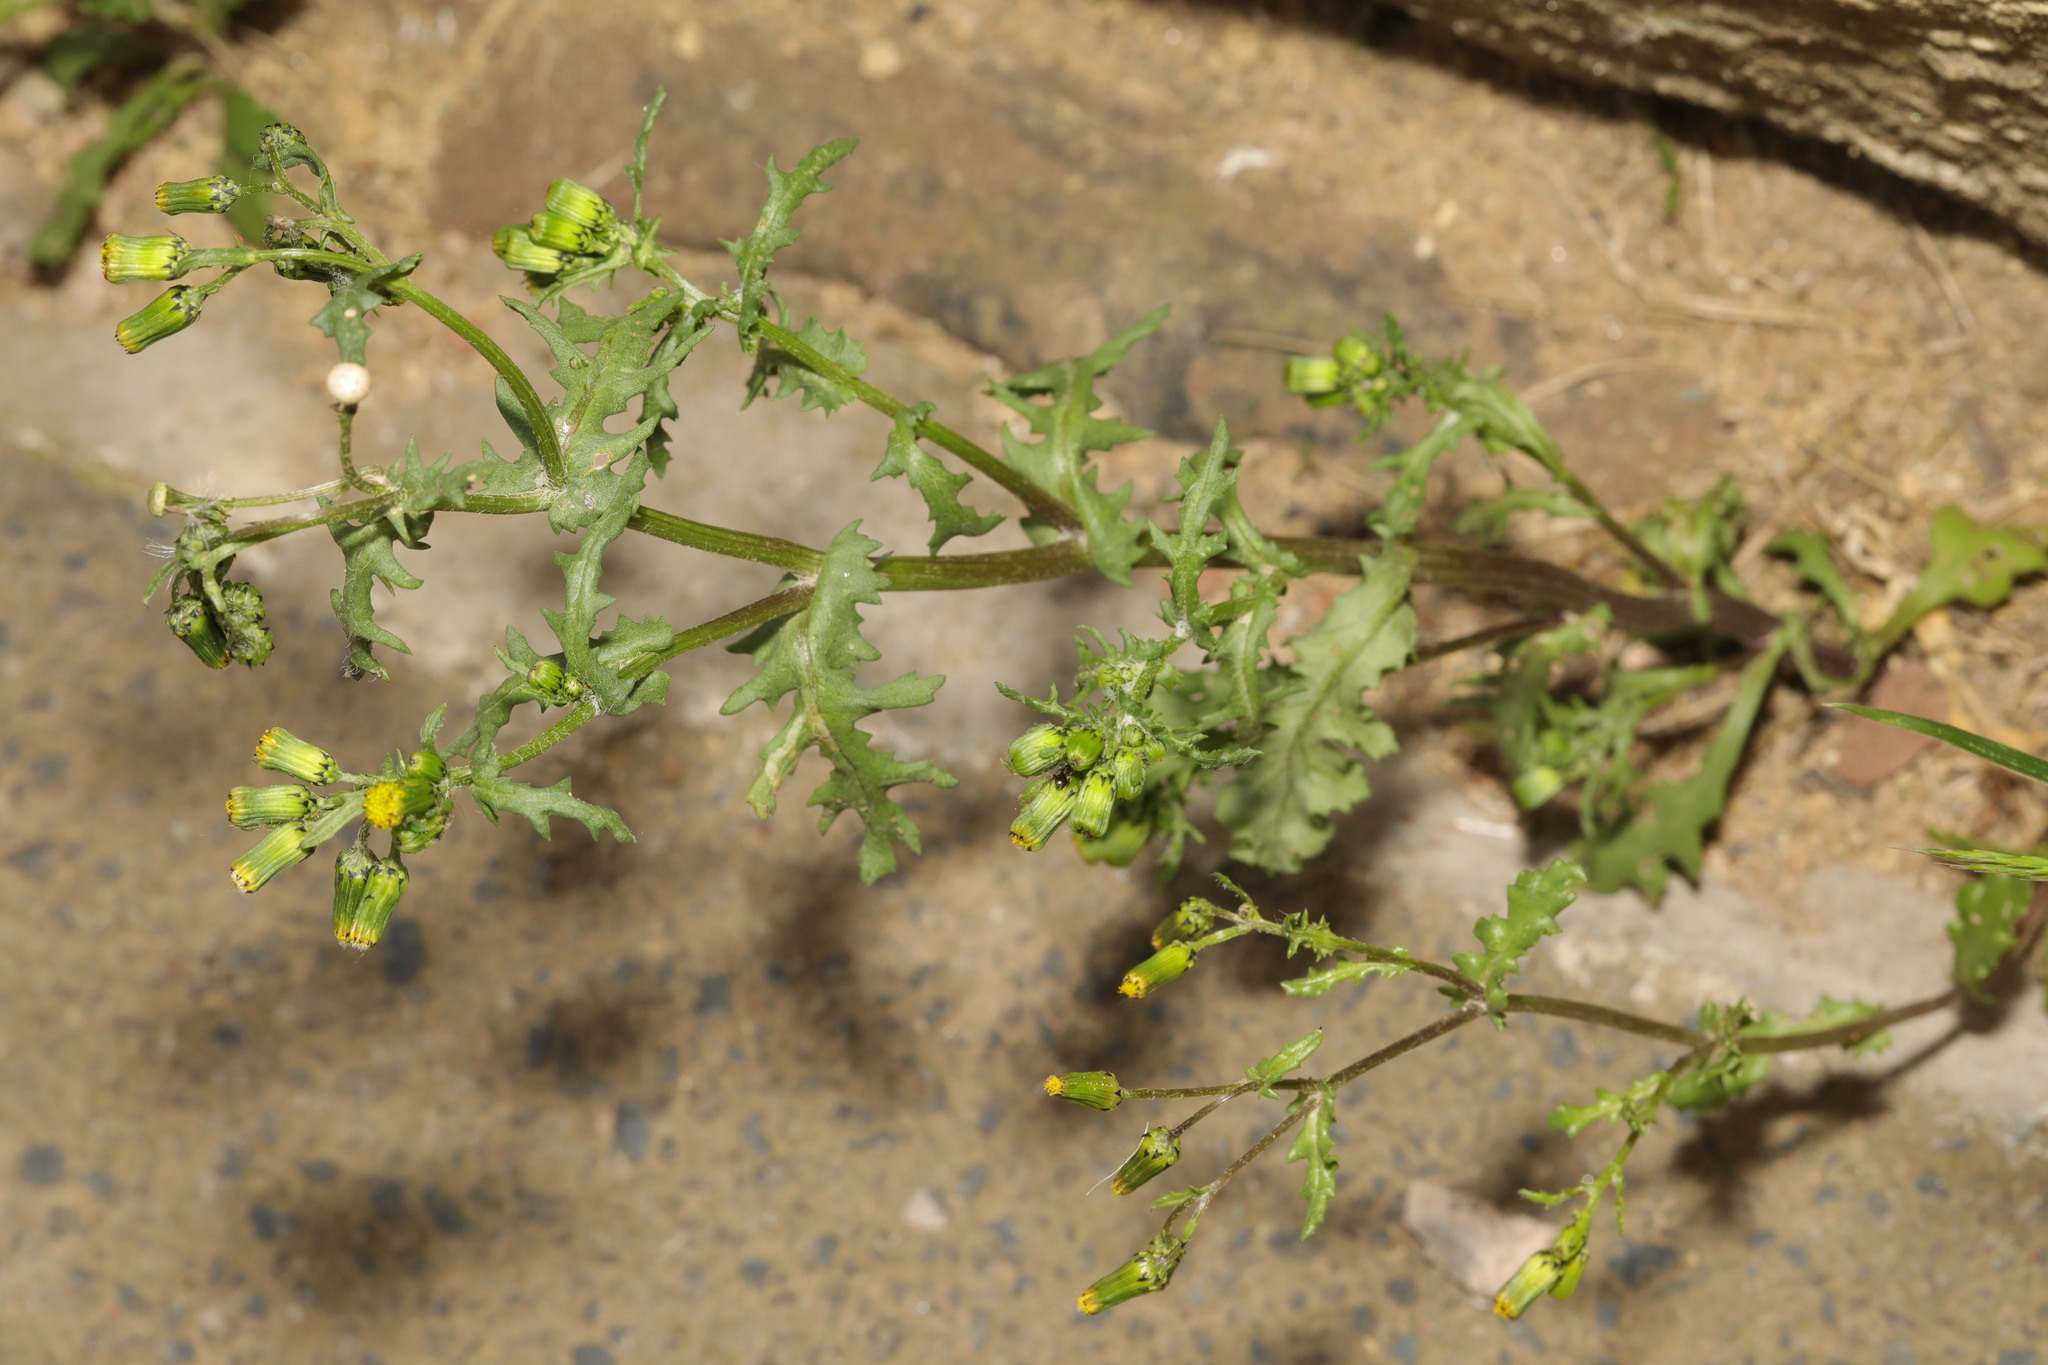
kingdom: Plantae
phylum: Tracheophyta
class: Magnoliopsida
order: Asterales
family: Asteraceae
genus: Senecio
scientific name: Senecio vulgaris
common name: Old-man-in-the-spring
